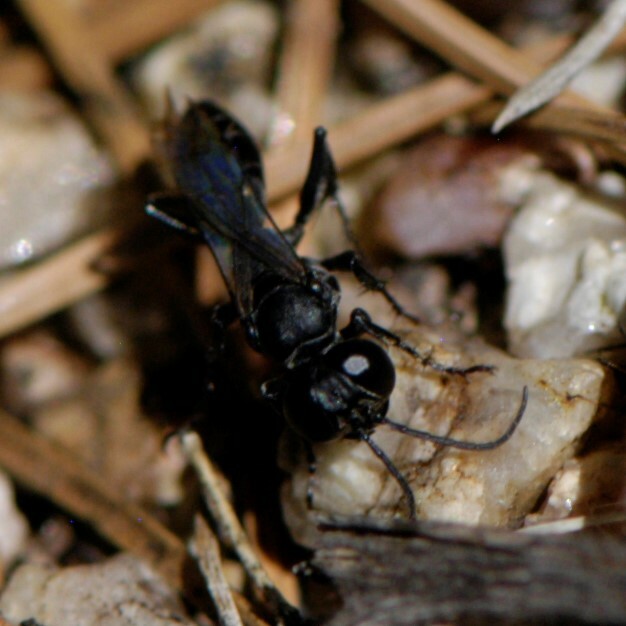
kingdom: Animalia
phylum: Arthropoda
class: Insecta
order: Hymenoptera
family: Crabronidae
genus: Liris
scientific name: Liris
